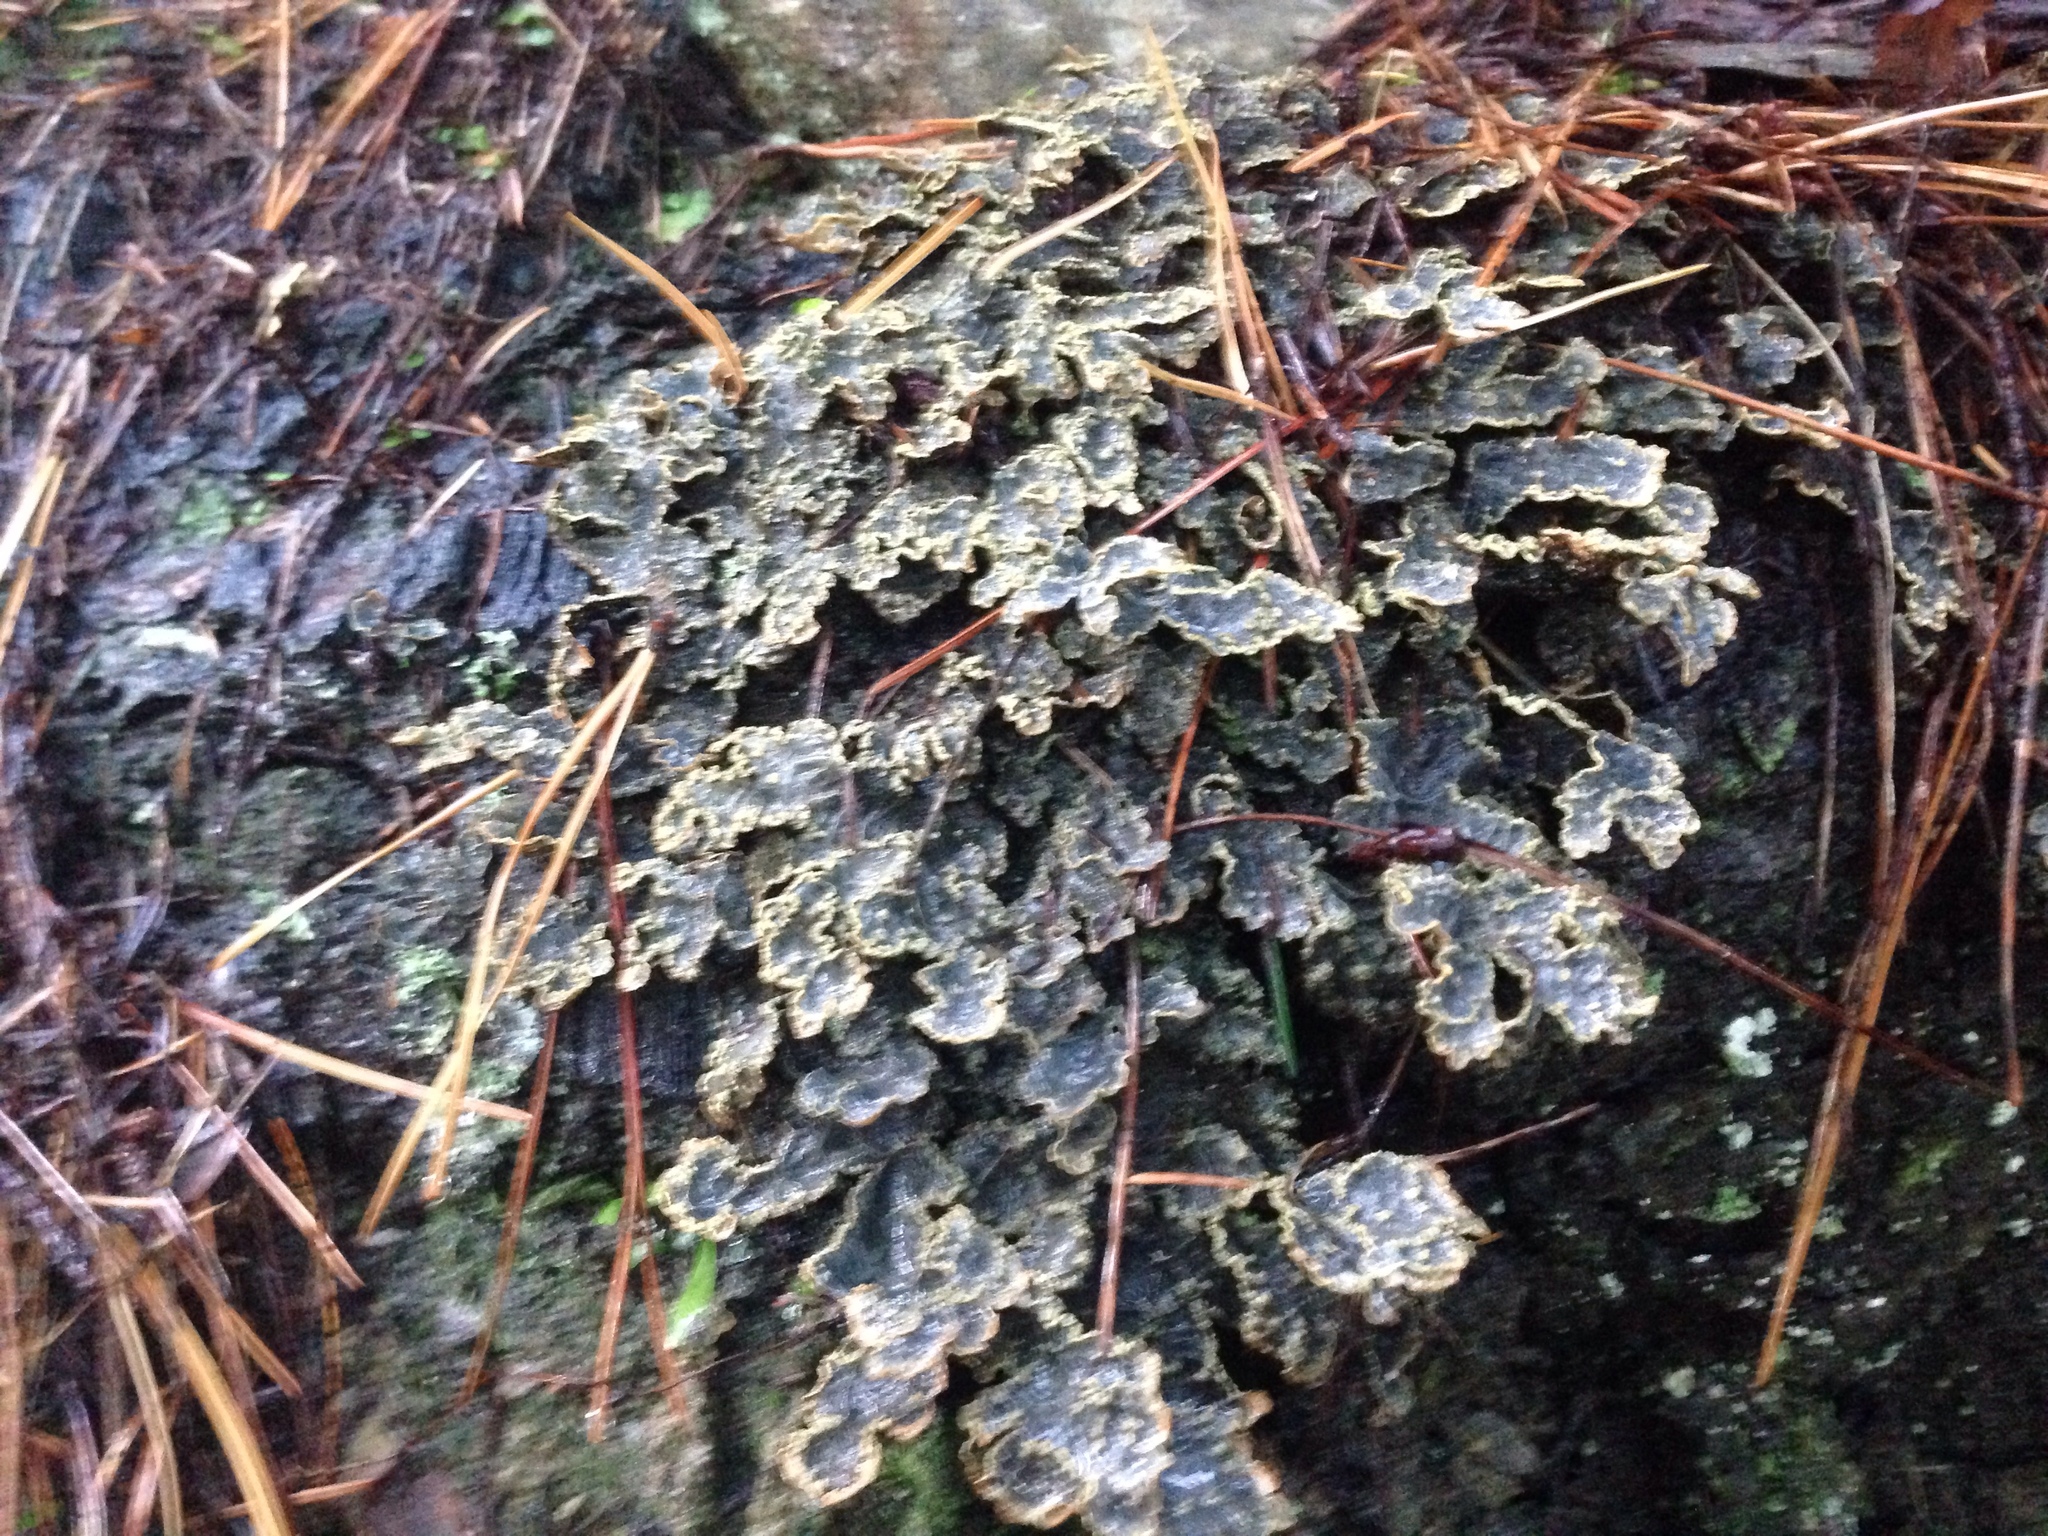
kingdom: Fungi
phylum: Ascomycota
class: Lecanoromycetes
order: Peltigerales
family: Lobariaceae
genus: Pseudocyphellaria
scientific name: Pseudocyphellaria crocata
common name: Golden specklebelly
